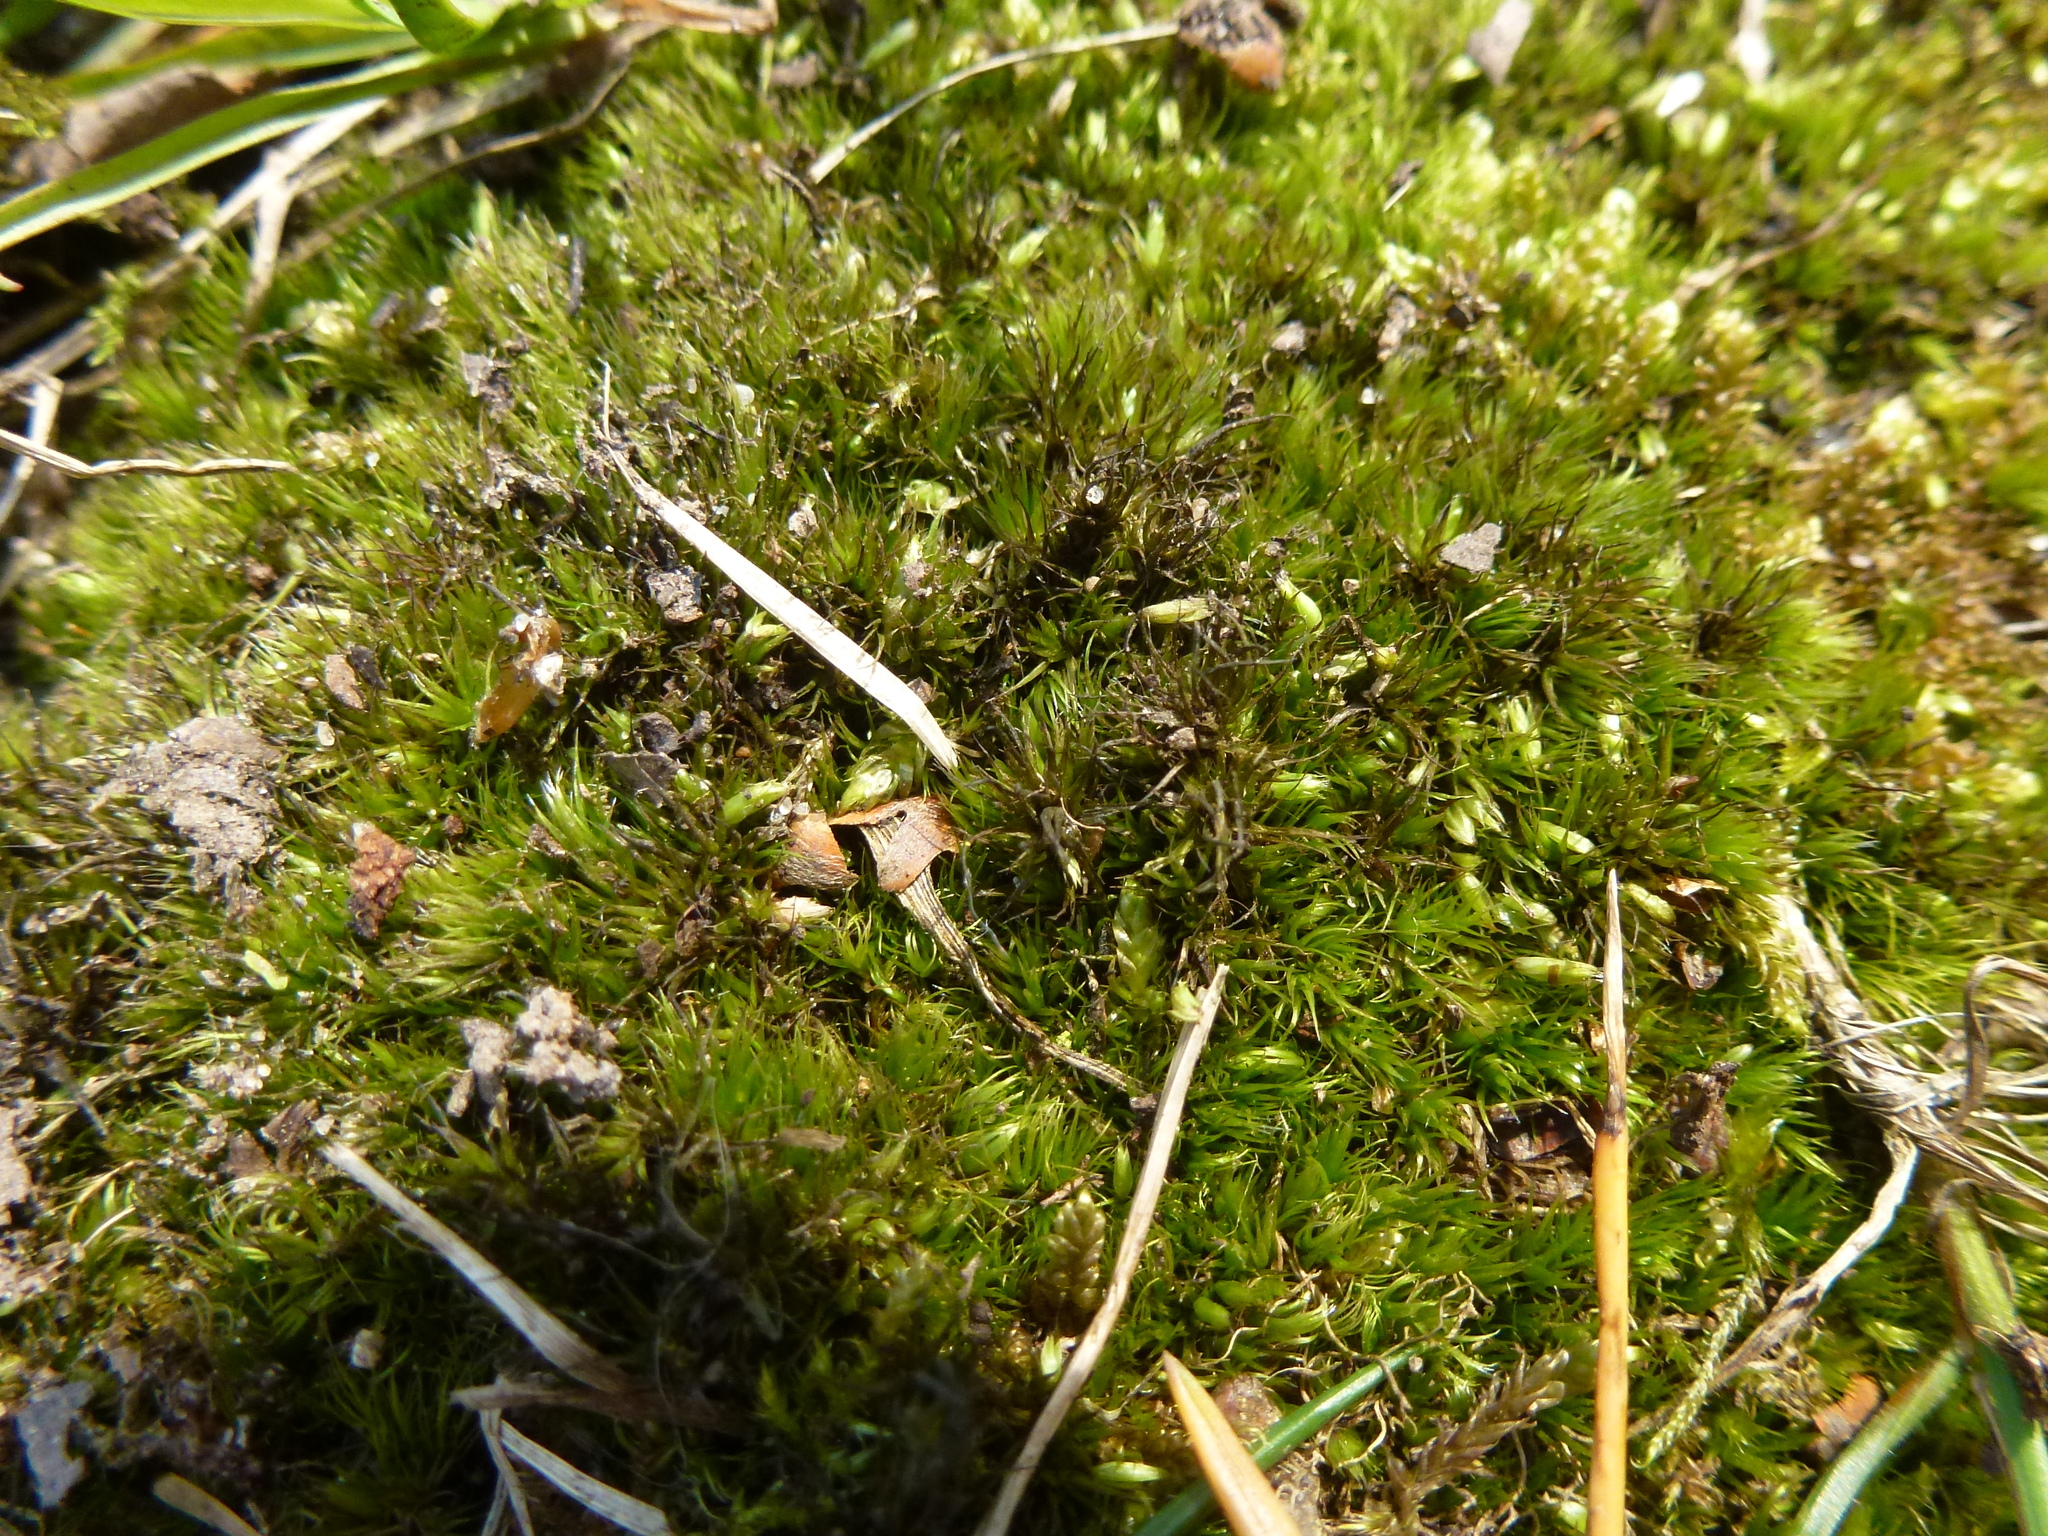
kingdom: Plantae
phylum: Bryophyta
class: Bryopsida
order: Dicranales
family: Leucobryaceae
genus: Campylopus
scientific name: Campylopus introflexus
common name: Heath star moss
